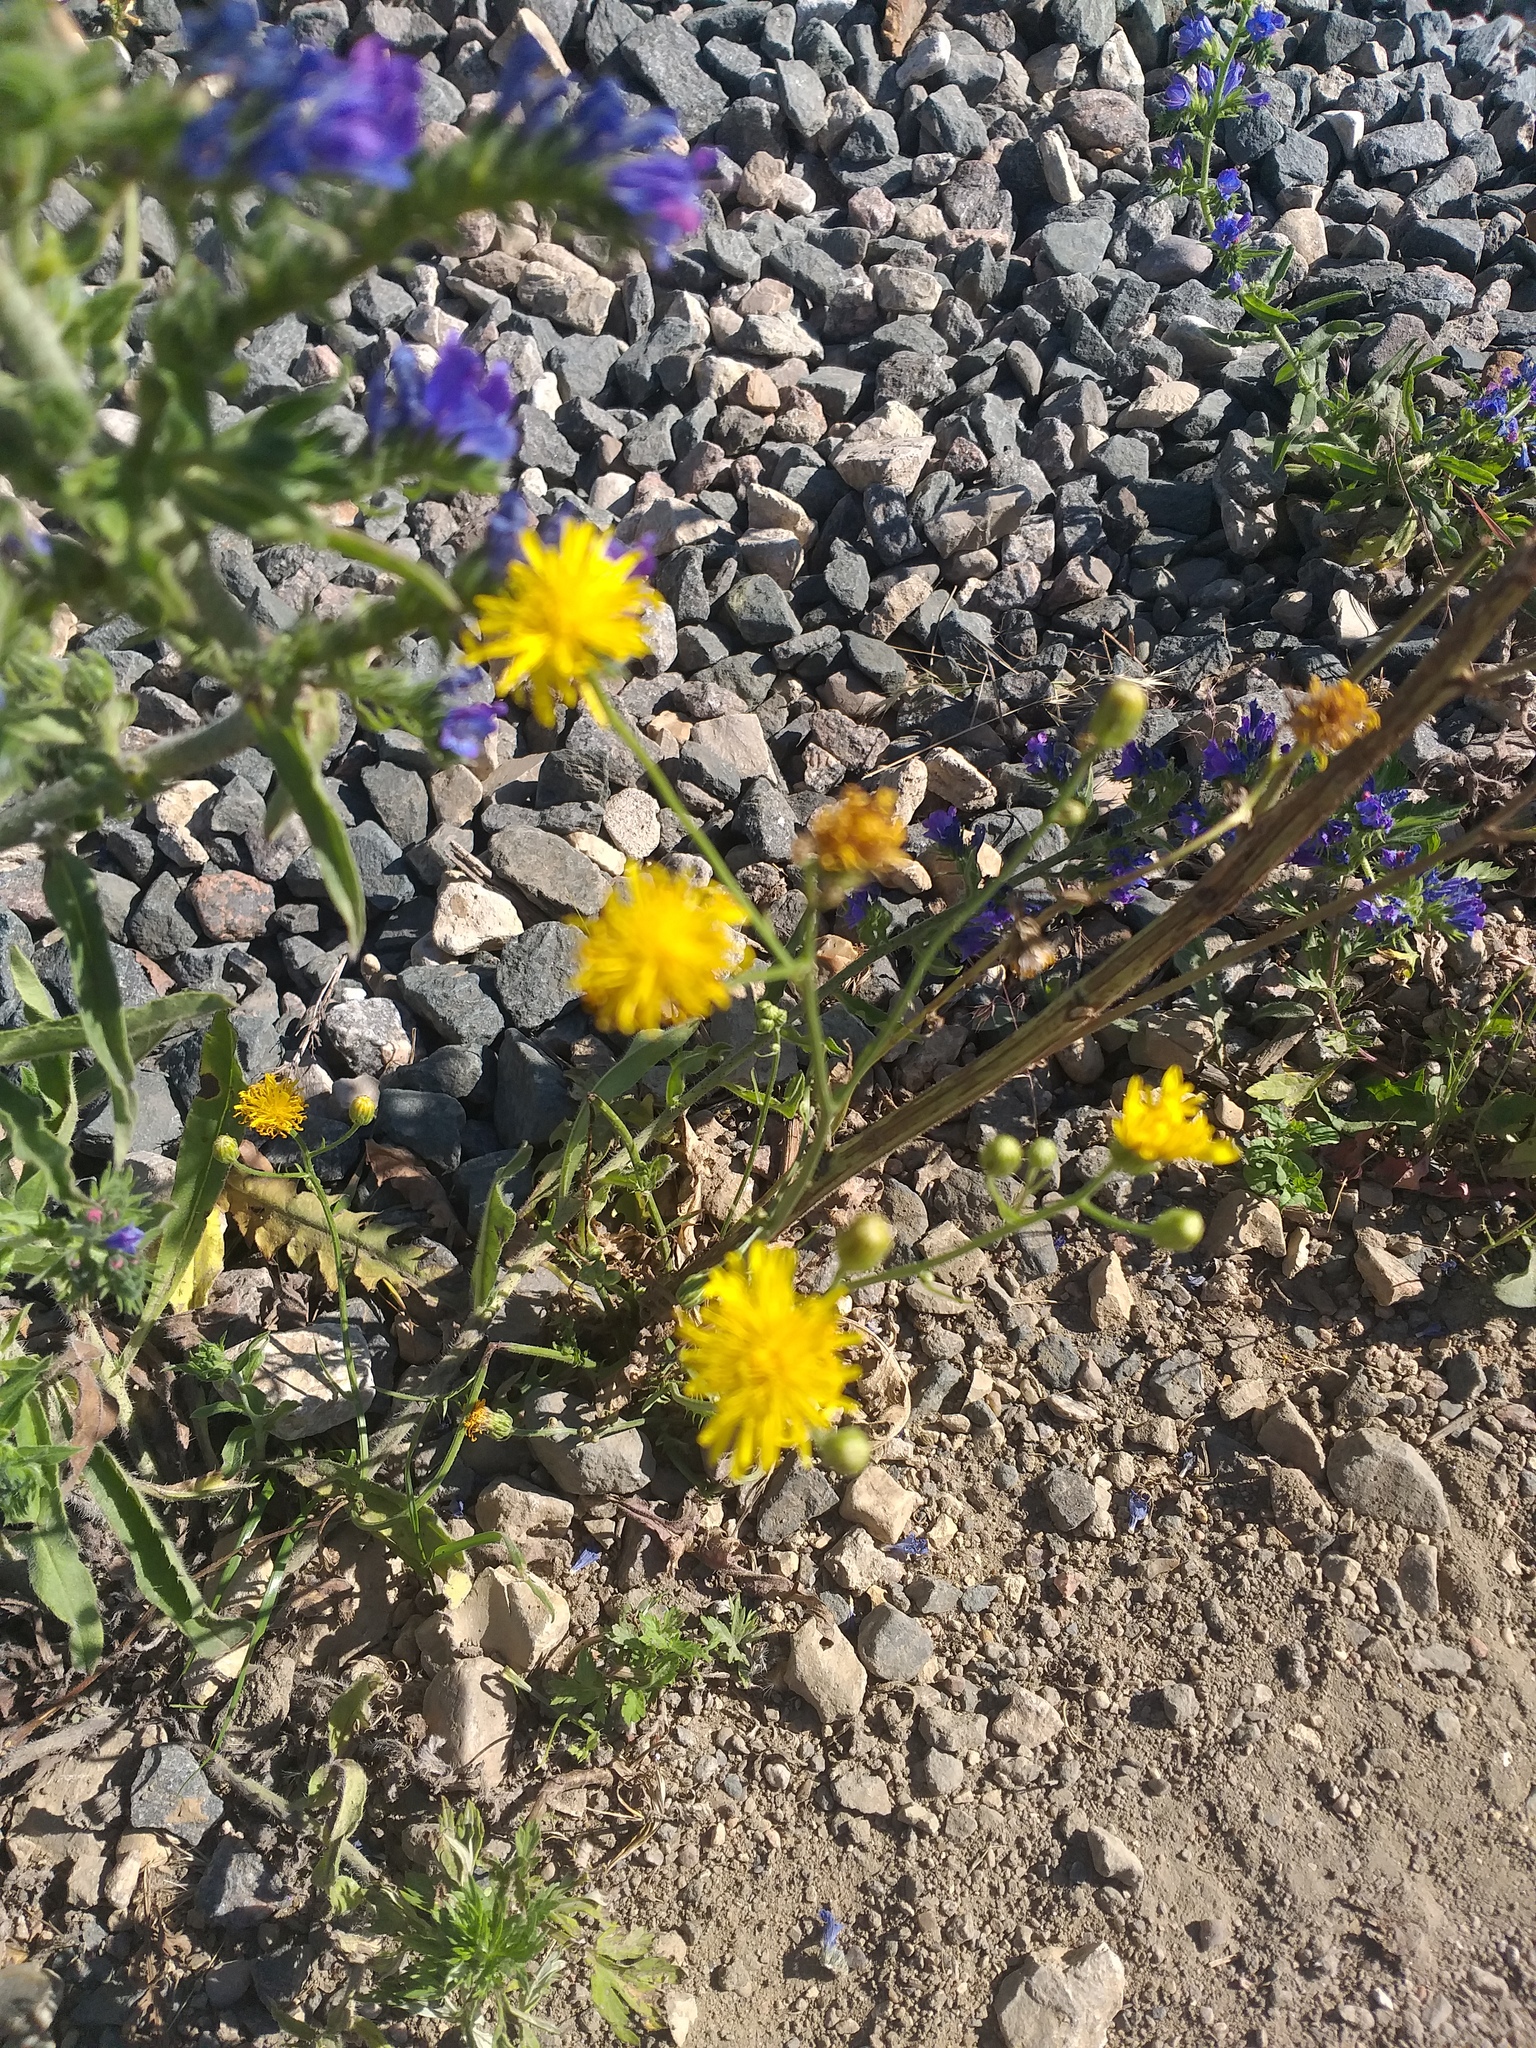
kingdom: Plantae
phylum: Tracheophyta
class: Magnoliopsida
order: Asterales
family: Asteraceae
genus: Crepis
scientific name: Crepis biennis
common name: Rough hawk's-beard
